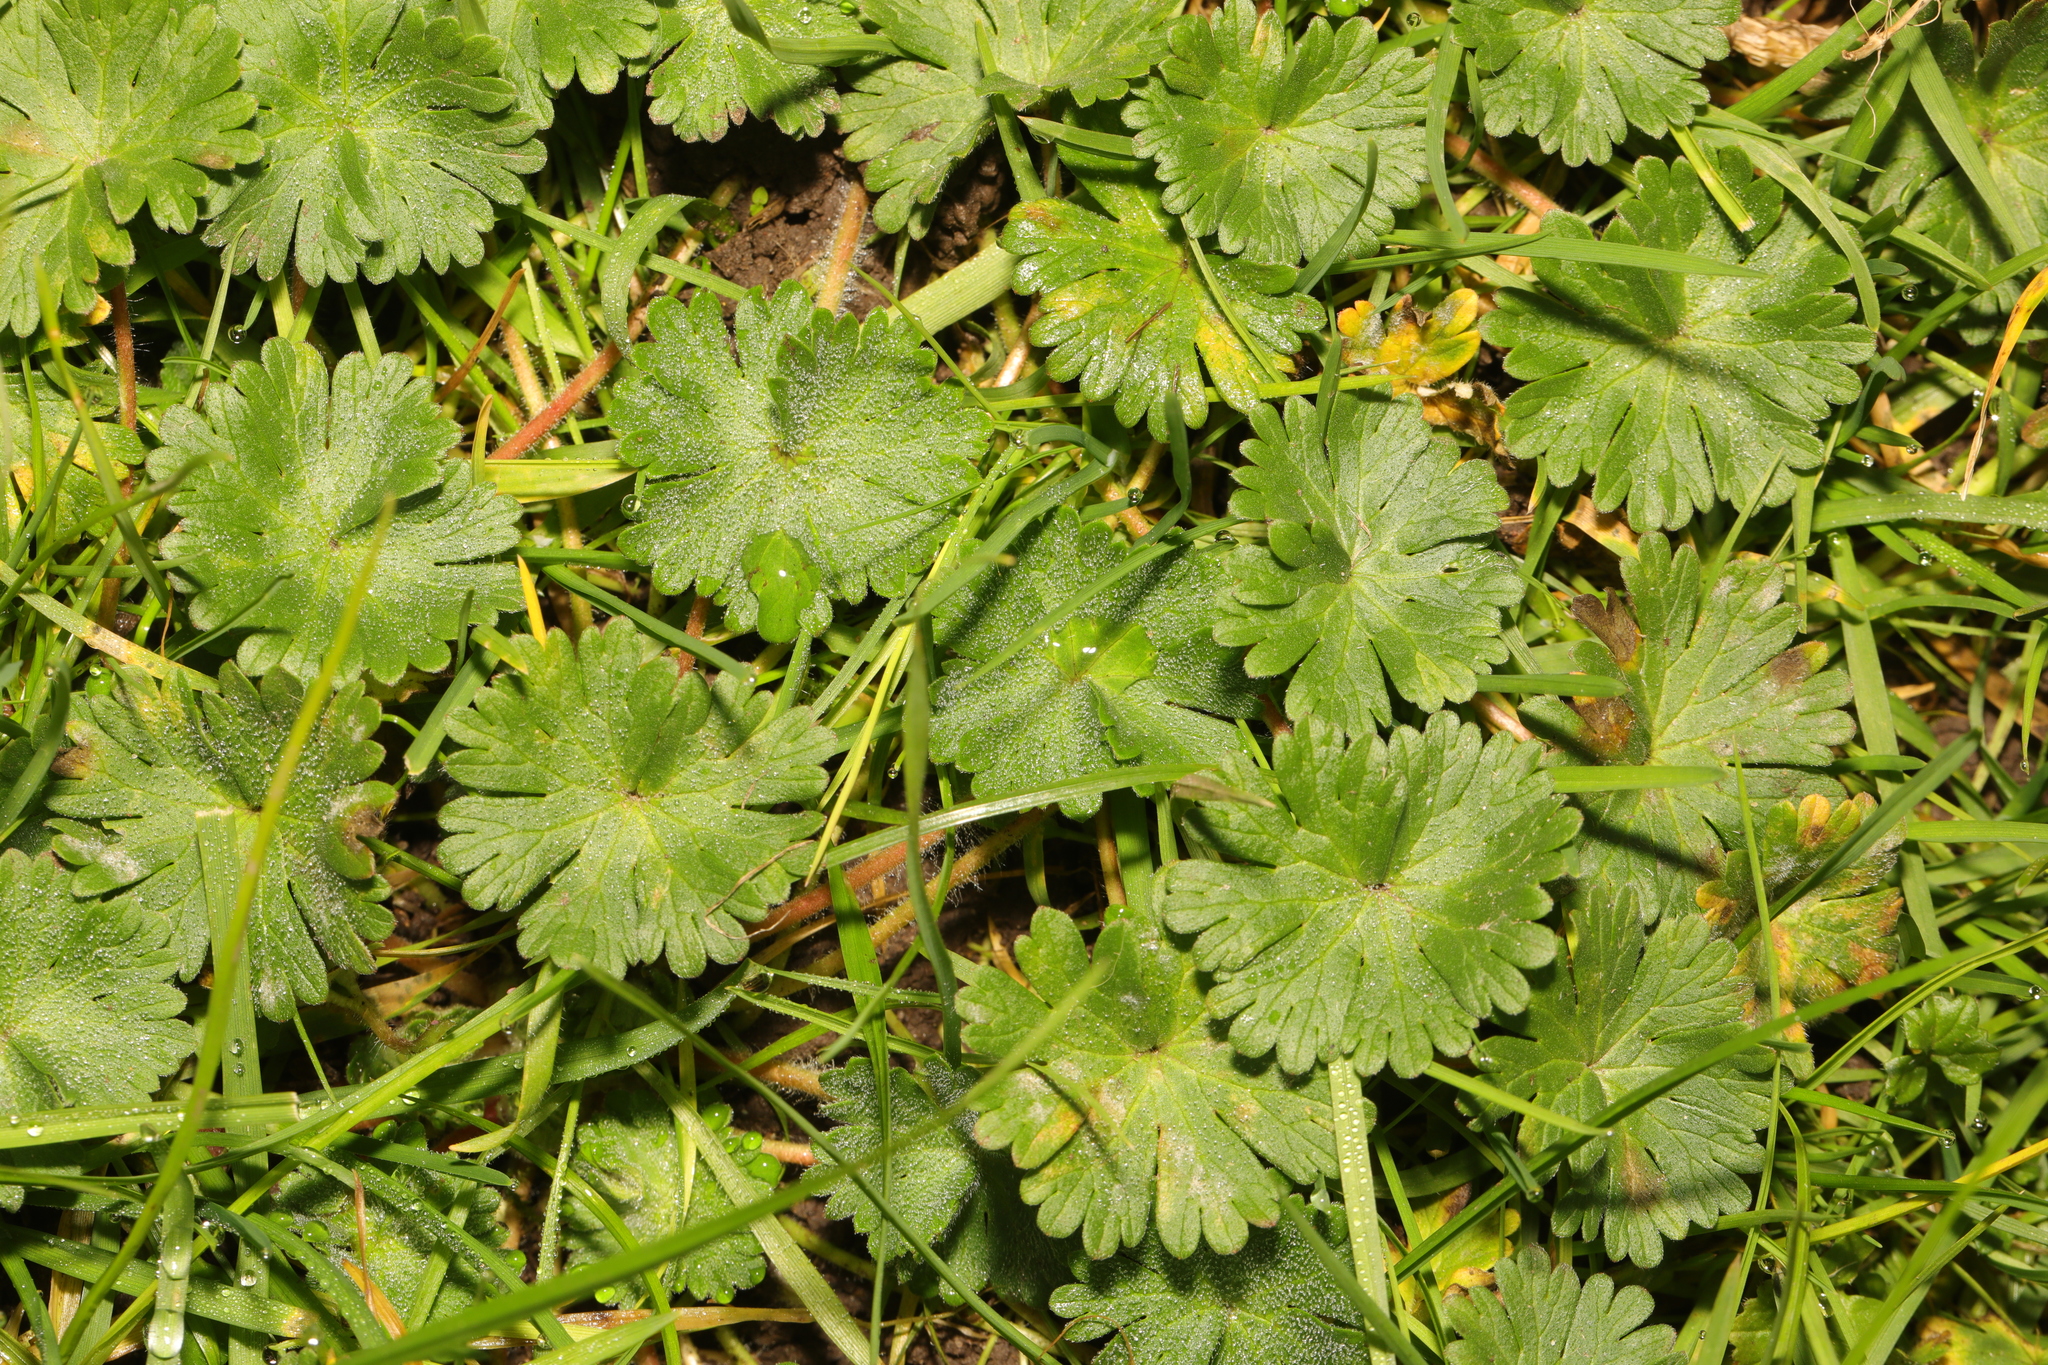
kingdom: Plantae
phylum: Tracheophyta
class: Magnoliopsida
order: Geraniales
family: Geraniaceae
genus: Geranium
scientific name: Geranium molle
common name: Dove's-foot crane's-bill
